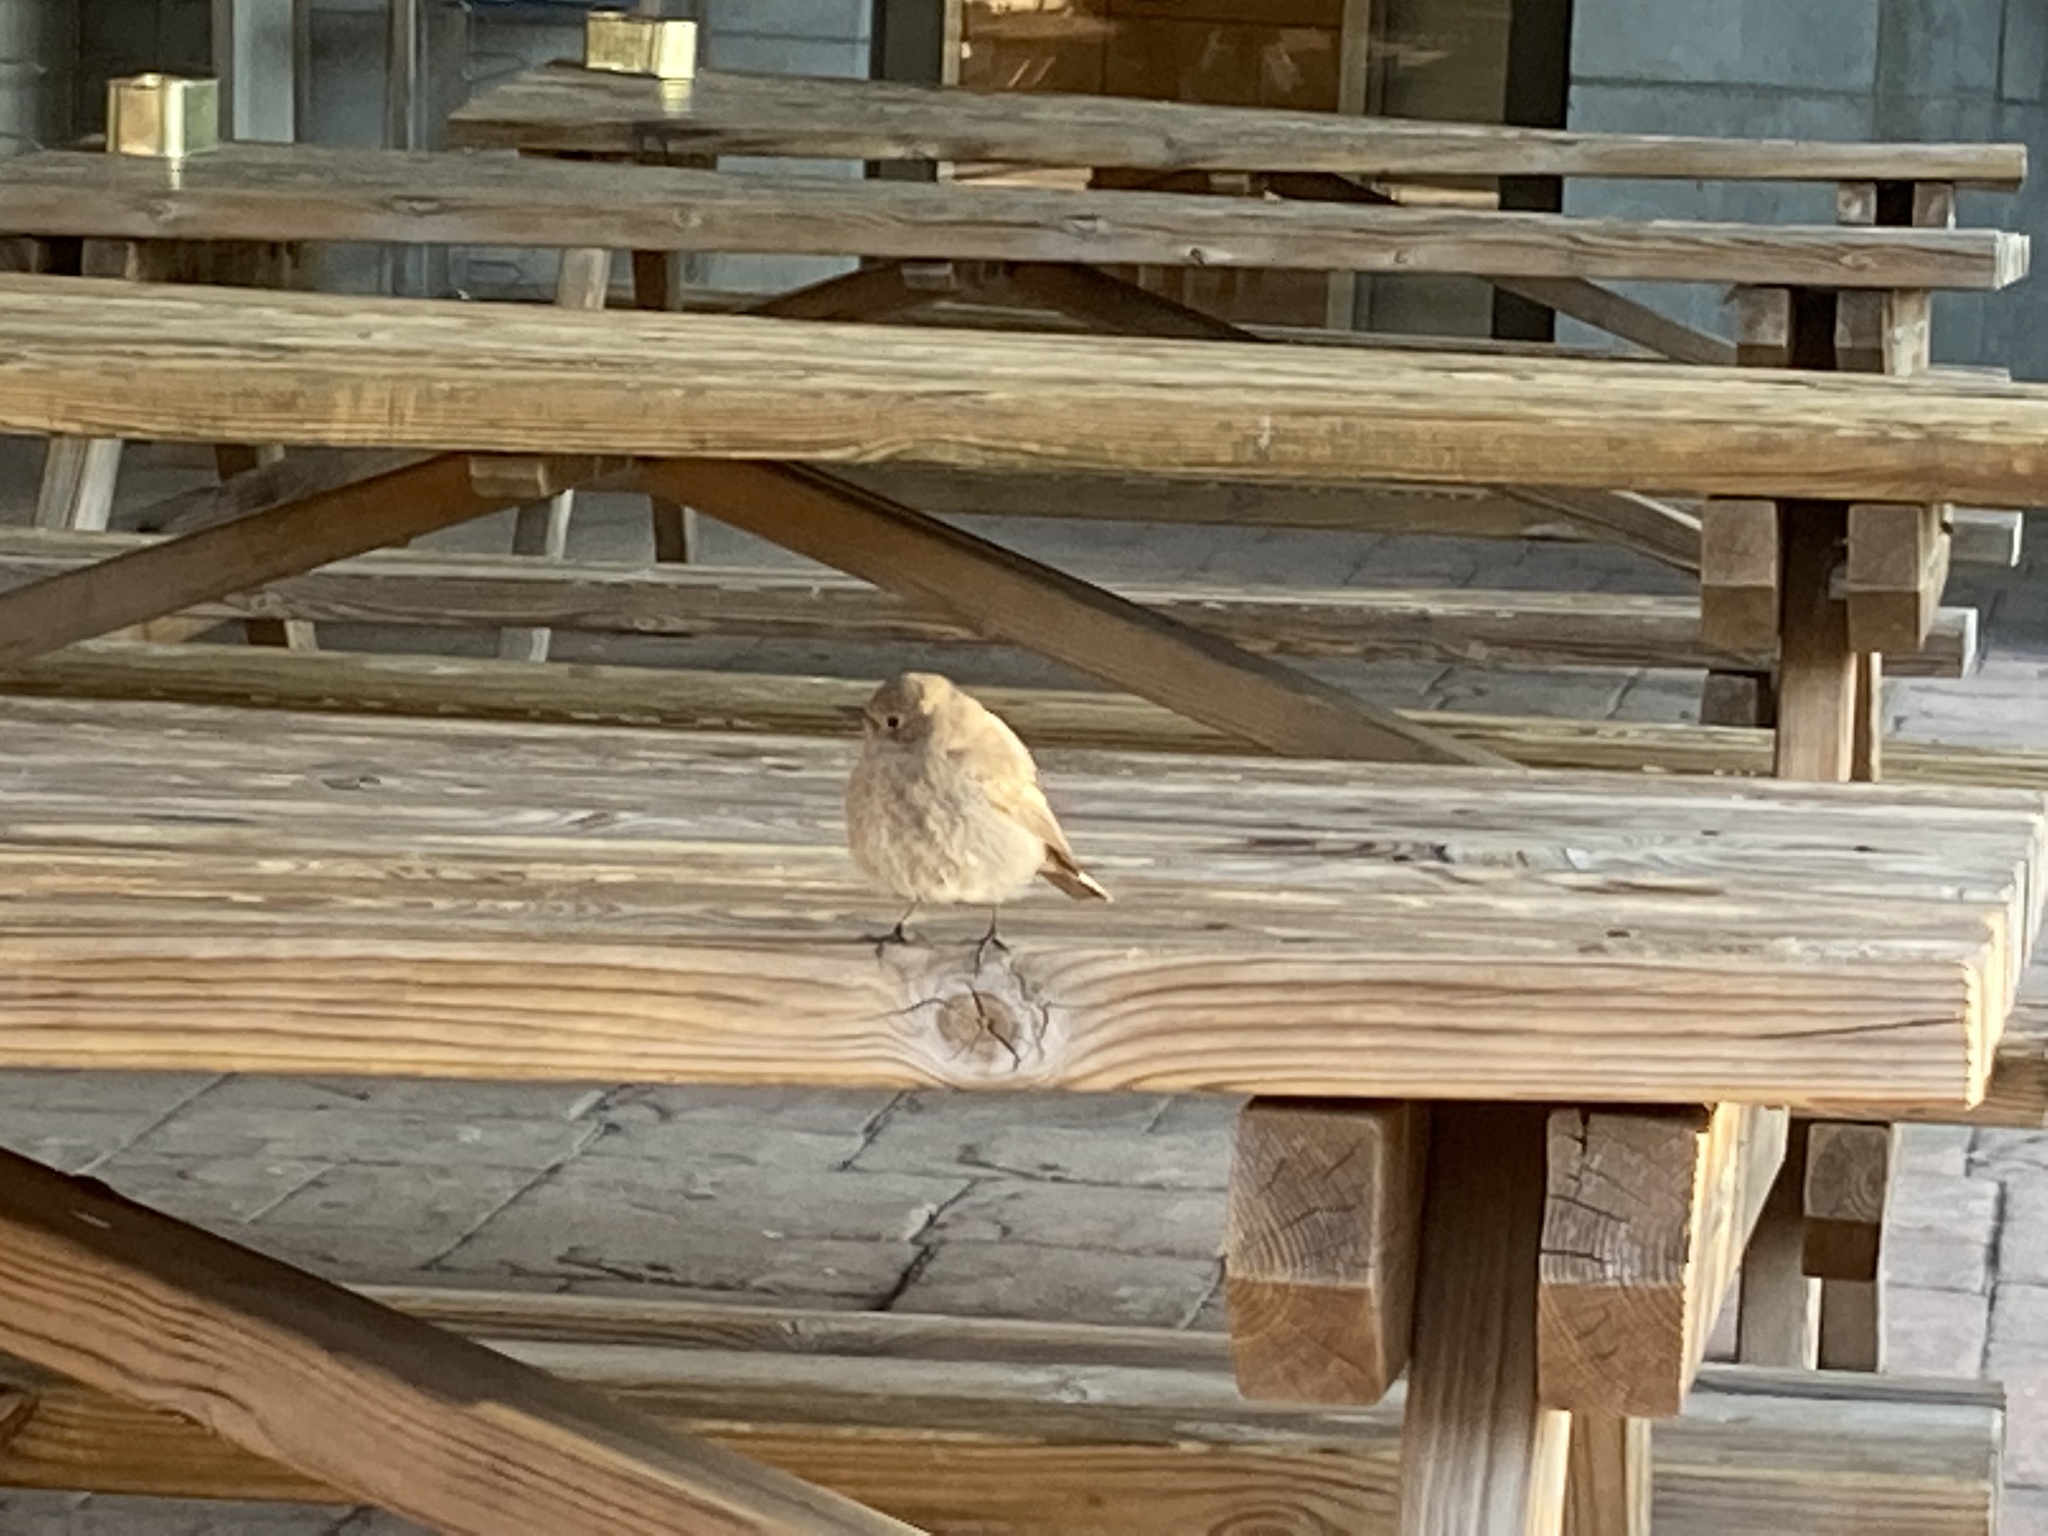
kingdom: Animalia
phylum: Chordata
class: Aves
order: Passeriformes
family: Muscicapidae
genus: Phoenicurus
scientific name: Phoenicurus ochruros
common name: Black redstart
